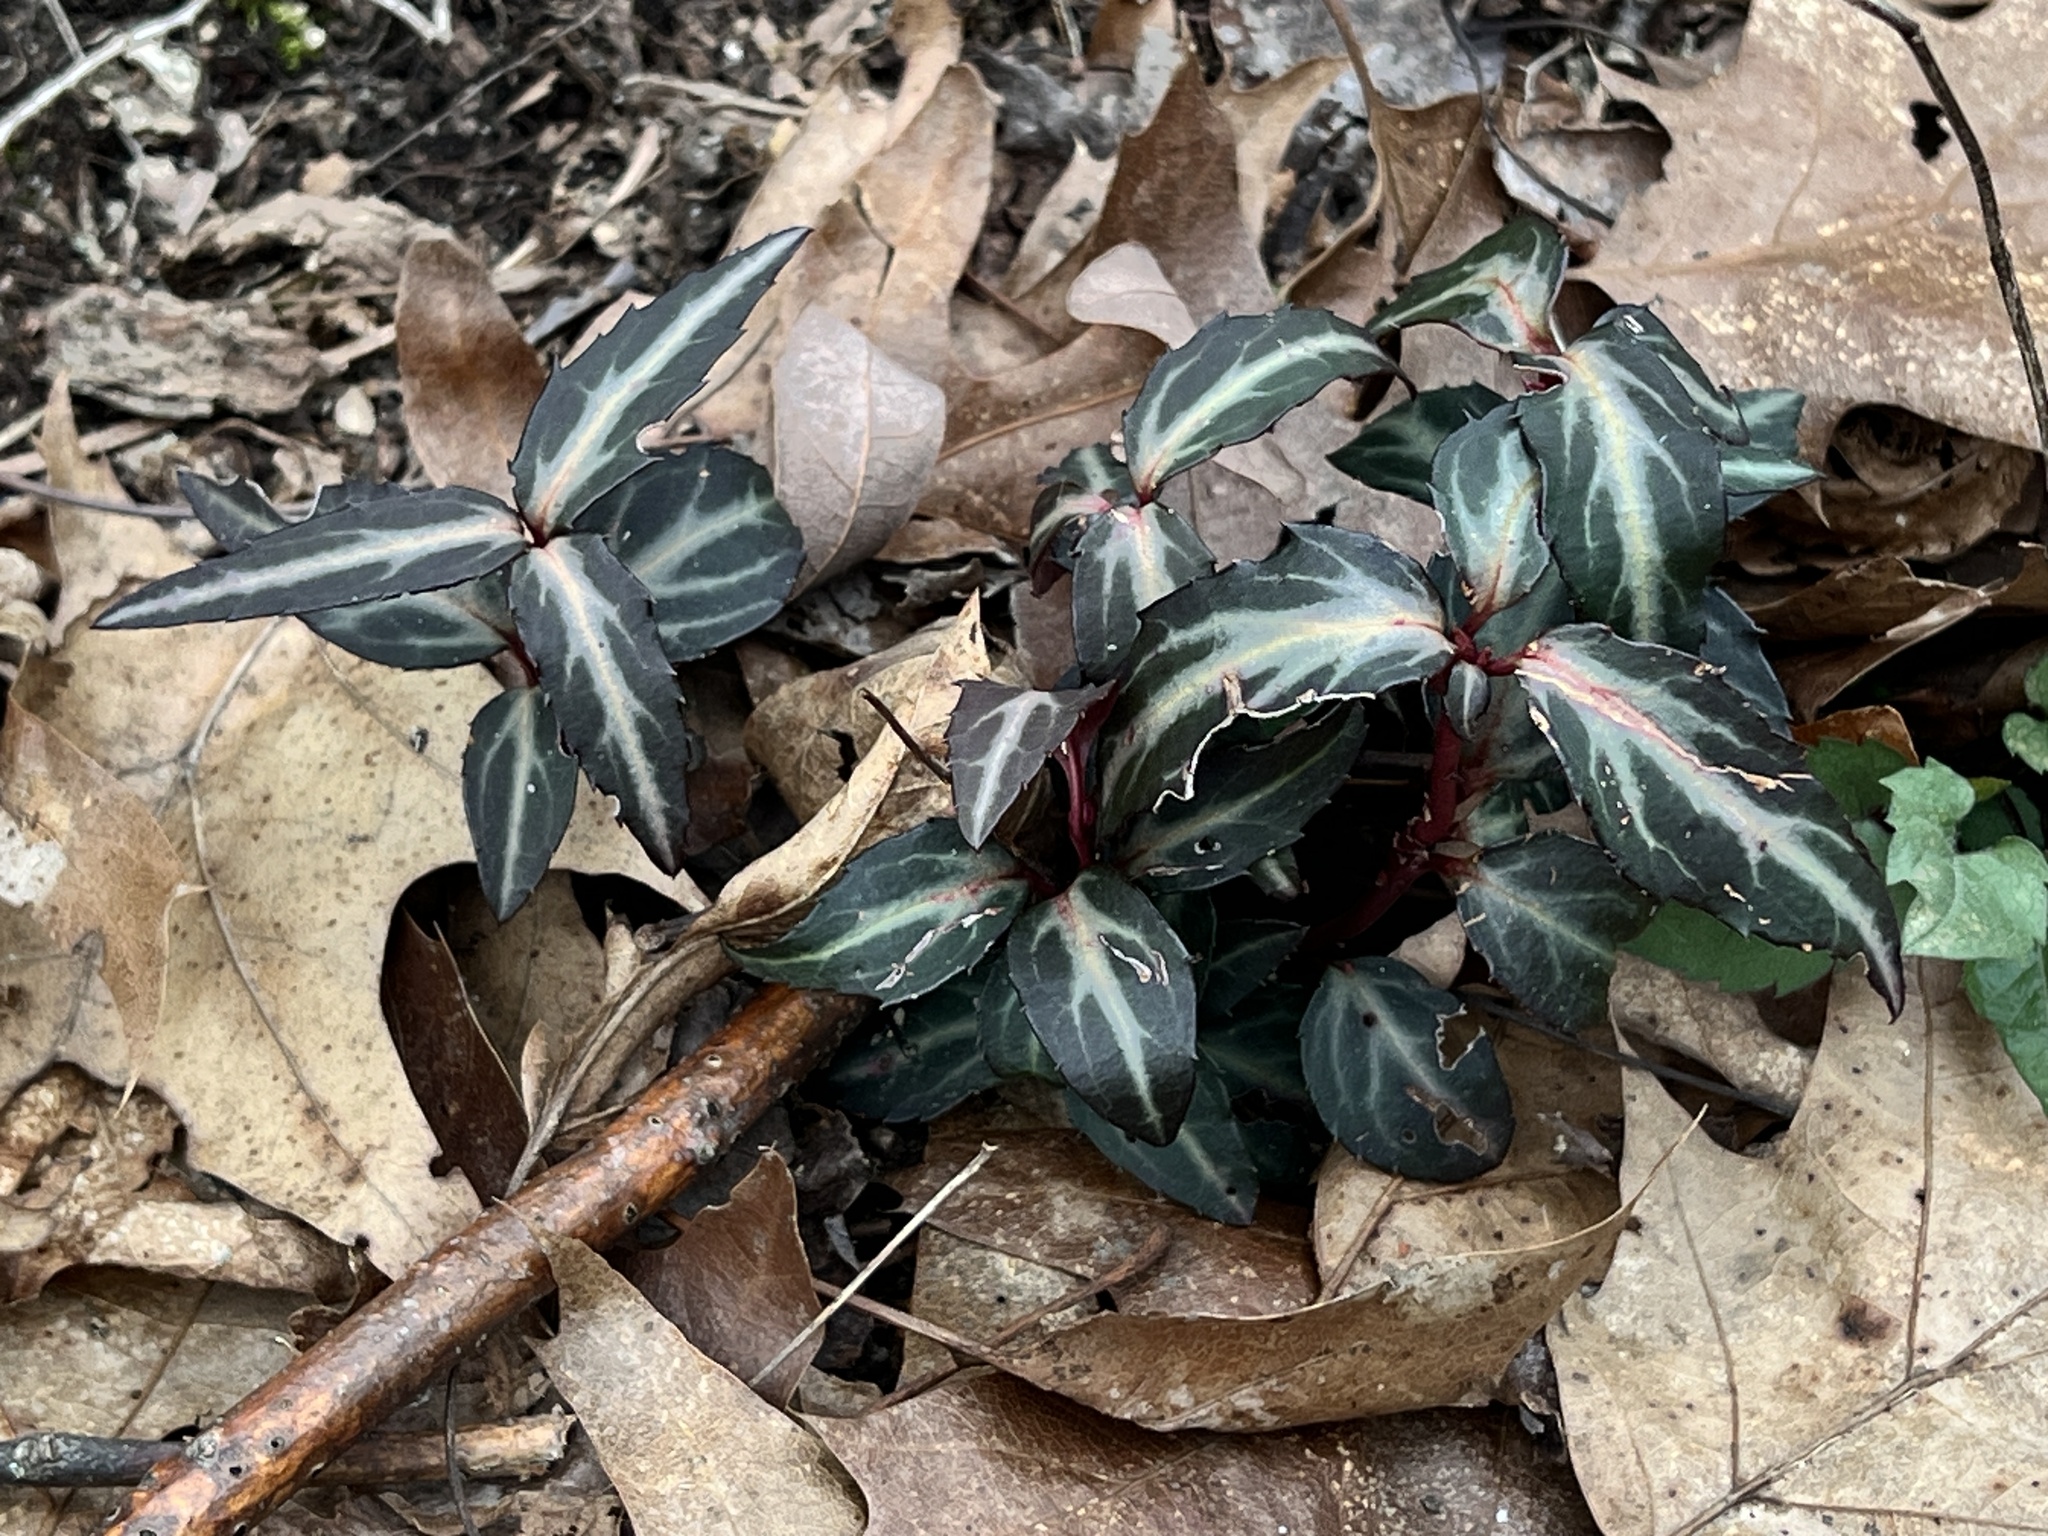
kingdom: Plantae
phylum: Tracheophyta
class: Magnoliopsida
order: Ericales
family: Ericaceae
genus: Chimaphila
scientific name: Chimaphila maculata
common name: Spotted pipsissewa
